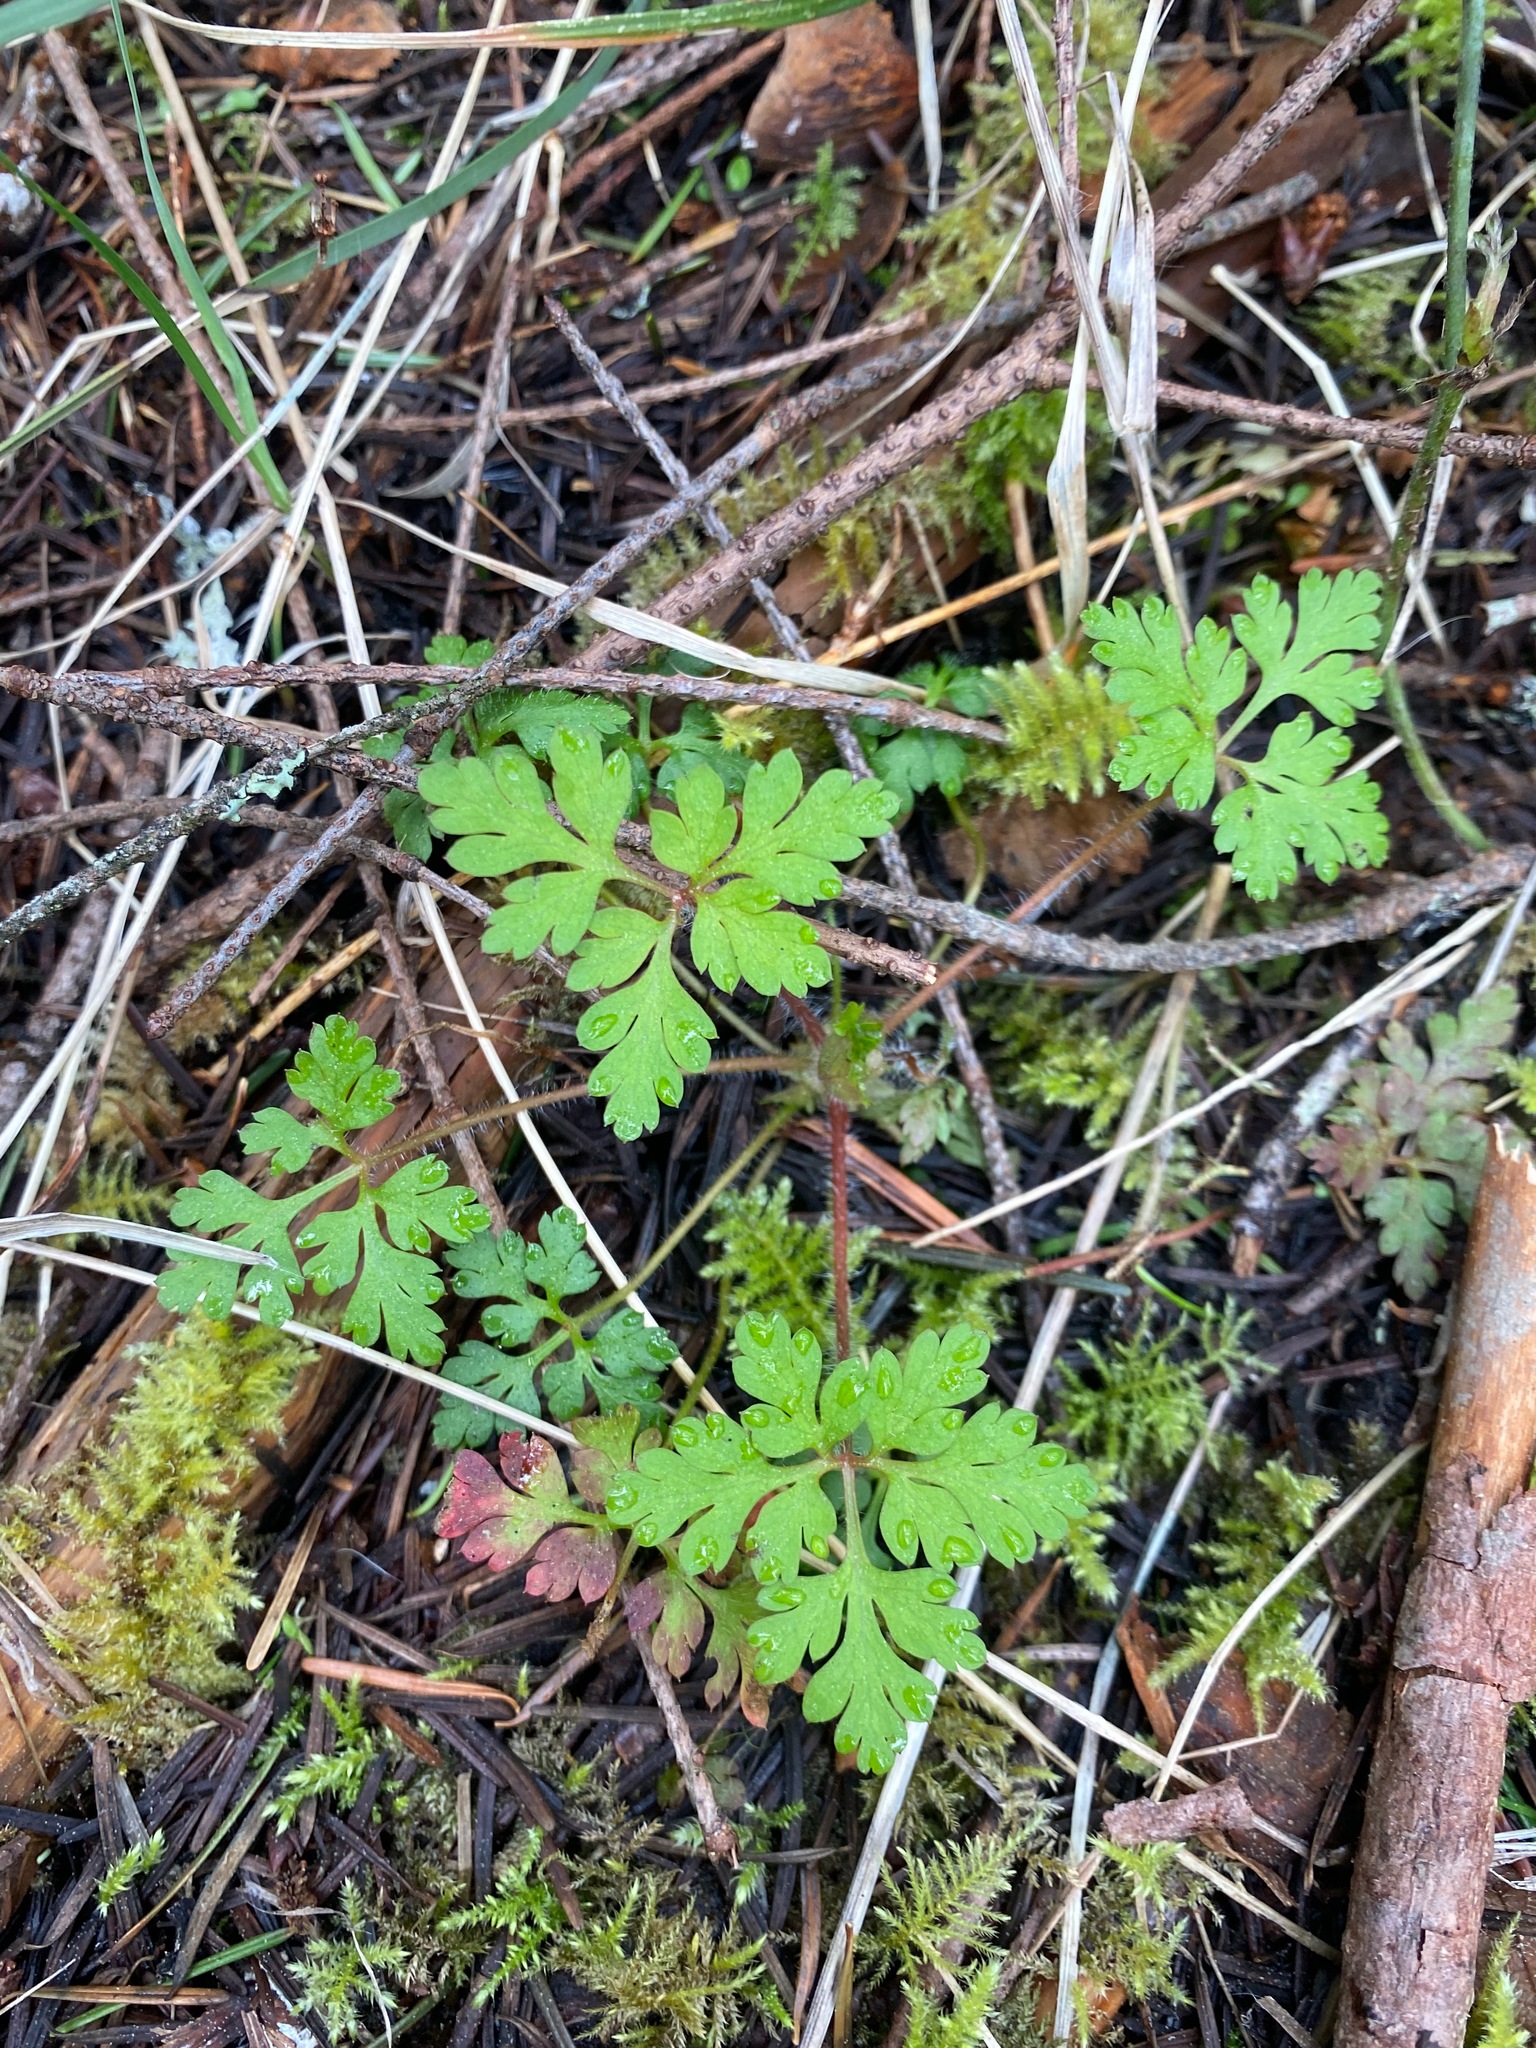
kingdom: Plantae
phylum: Tracheophyta
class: Magnoliopsida
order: Geraniales
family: Geraniaceae
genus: Geranium
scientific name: Geranium robertianum
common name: Herb-robert
